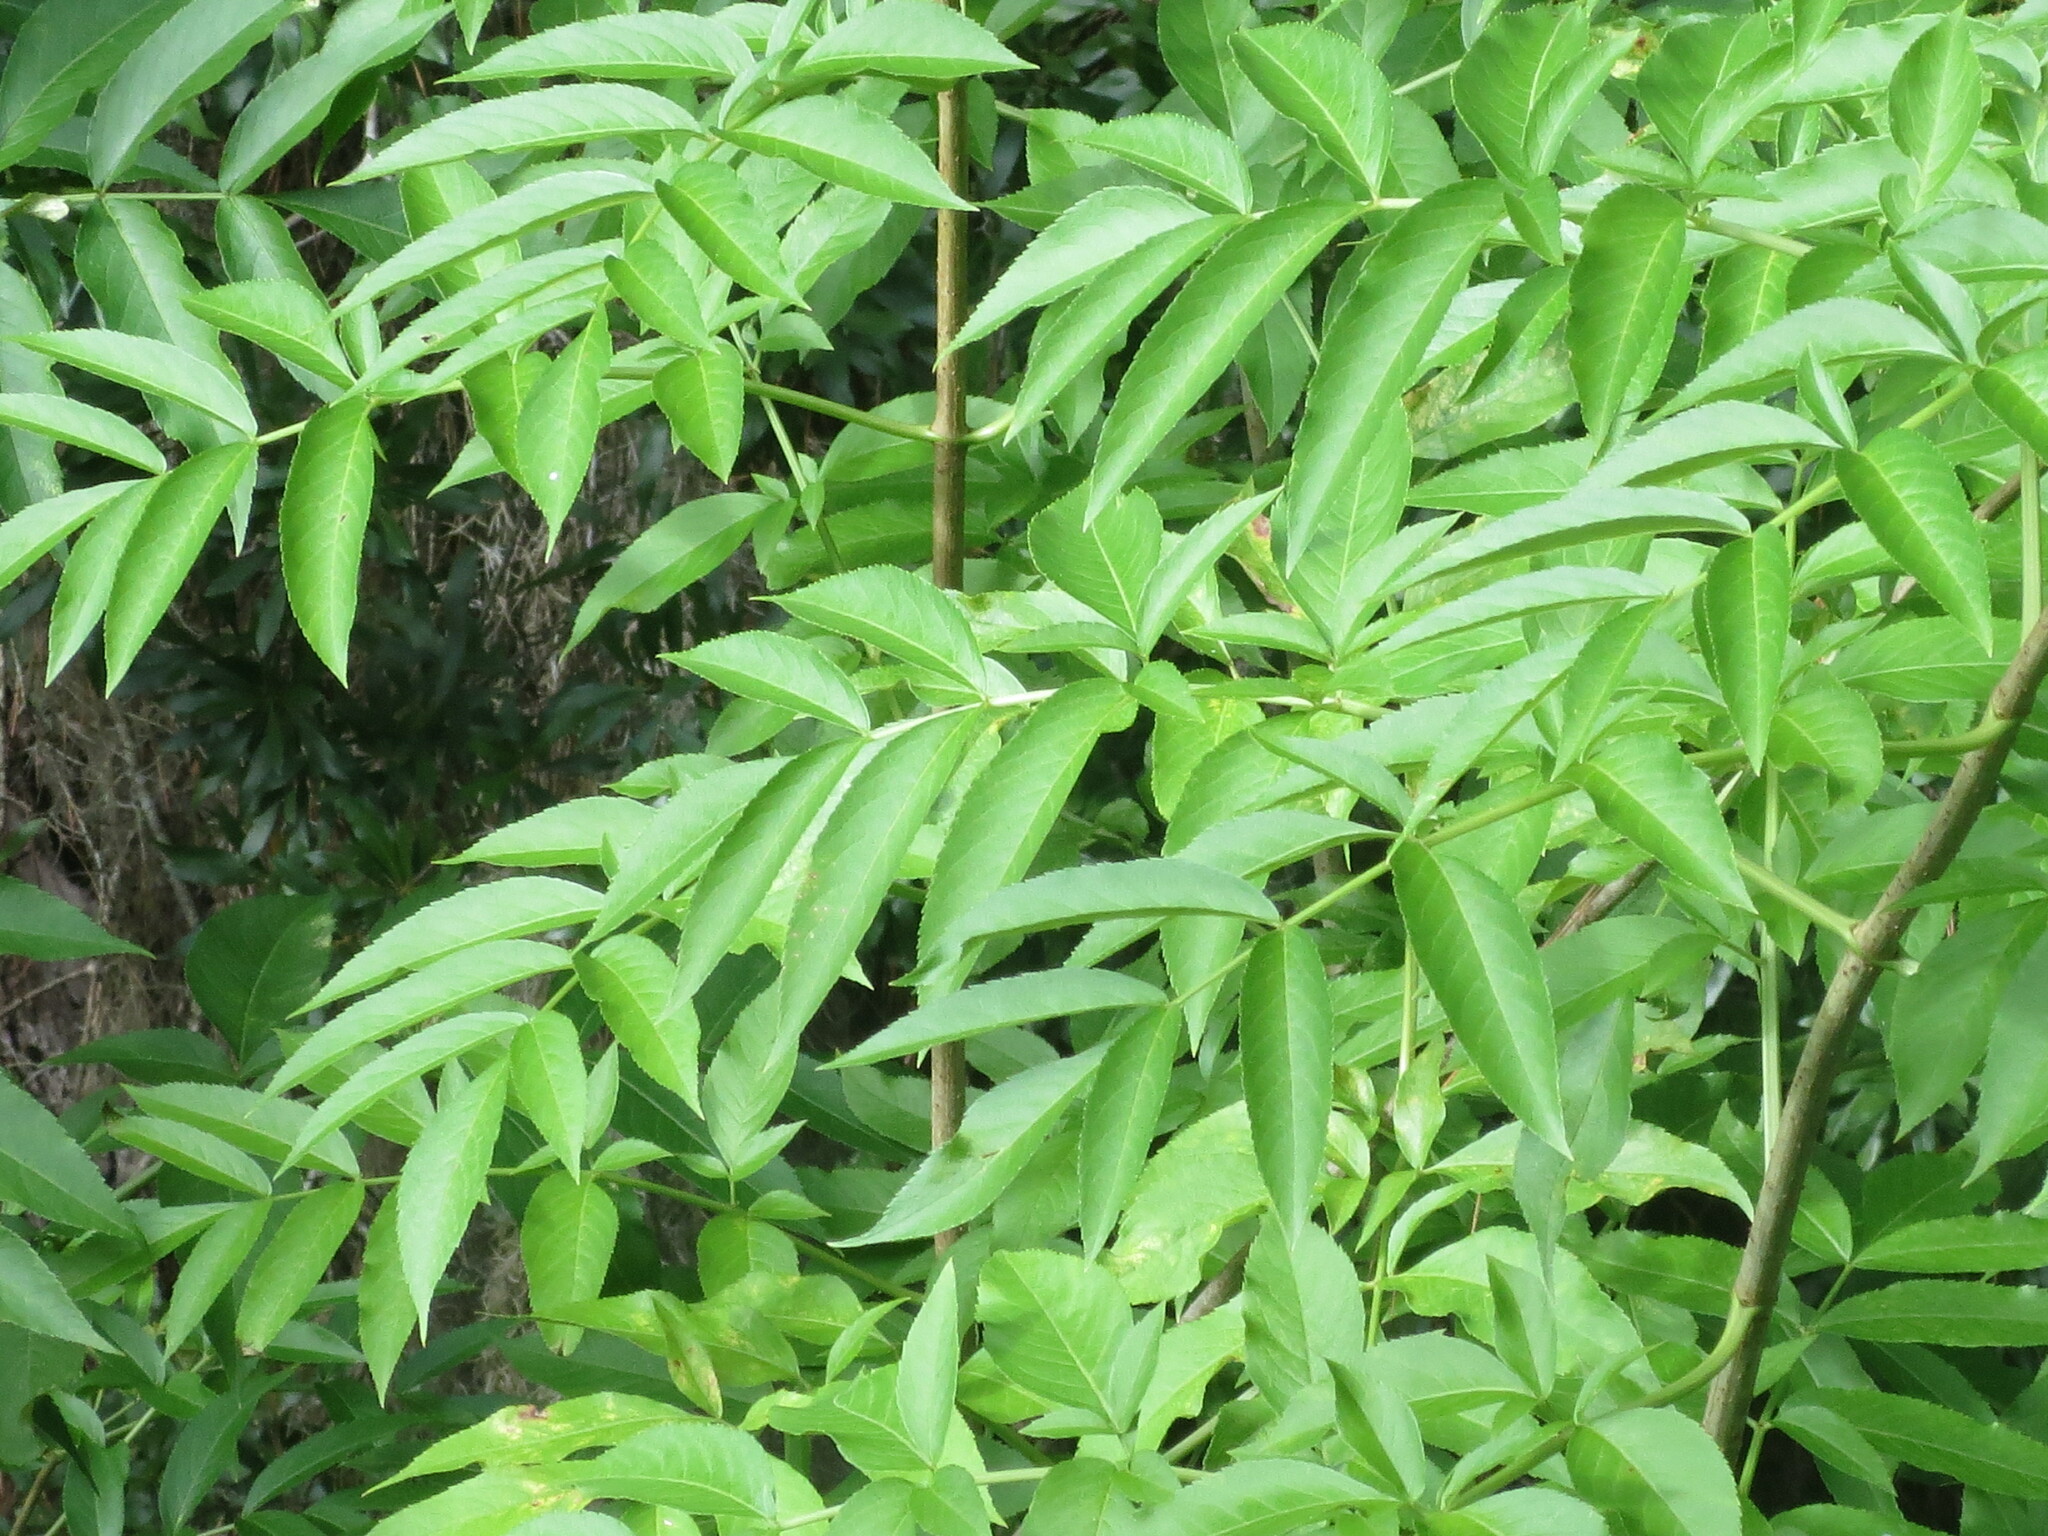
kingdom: Plantae
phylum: Tracheophyta
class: Magnoliopsida
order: Dipsacales
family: Viburnaceae
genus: Sambucus
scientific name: Sambucus canadensis
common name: American elder
